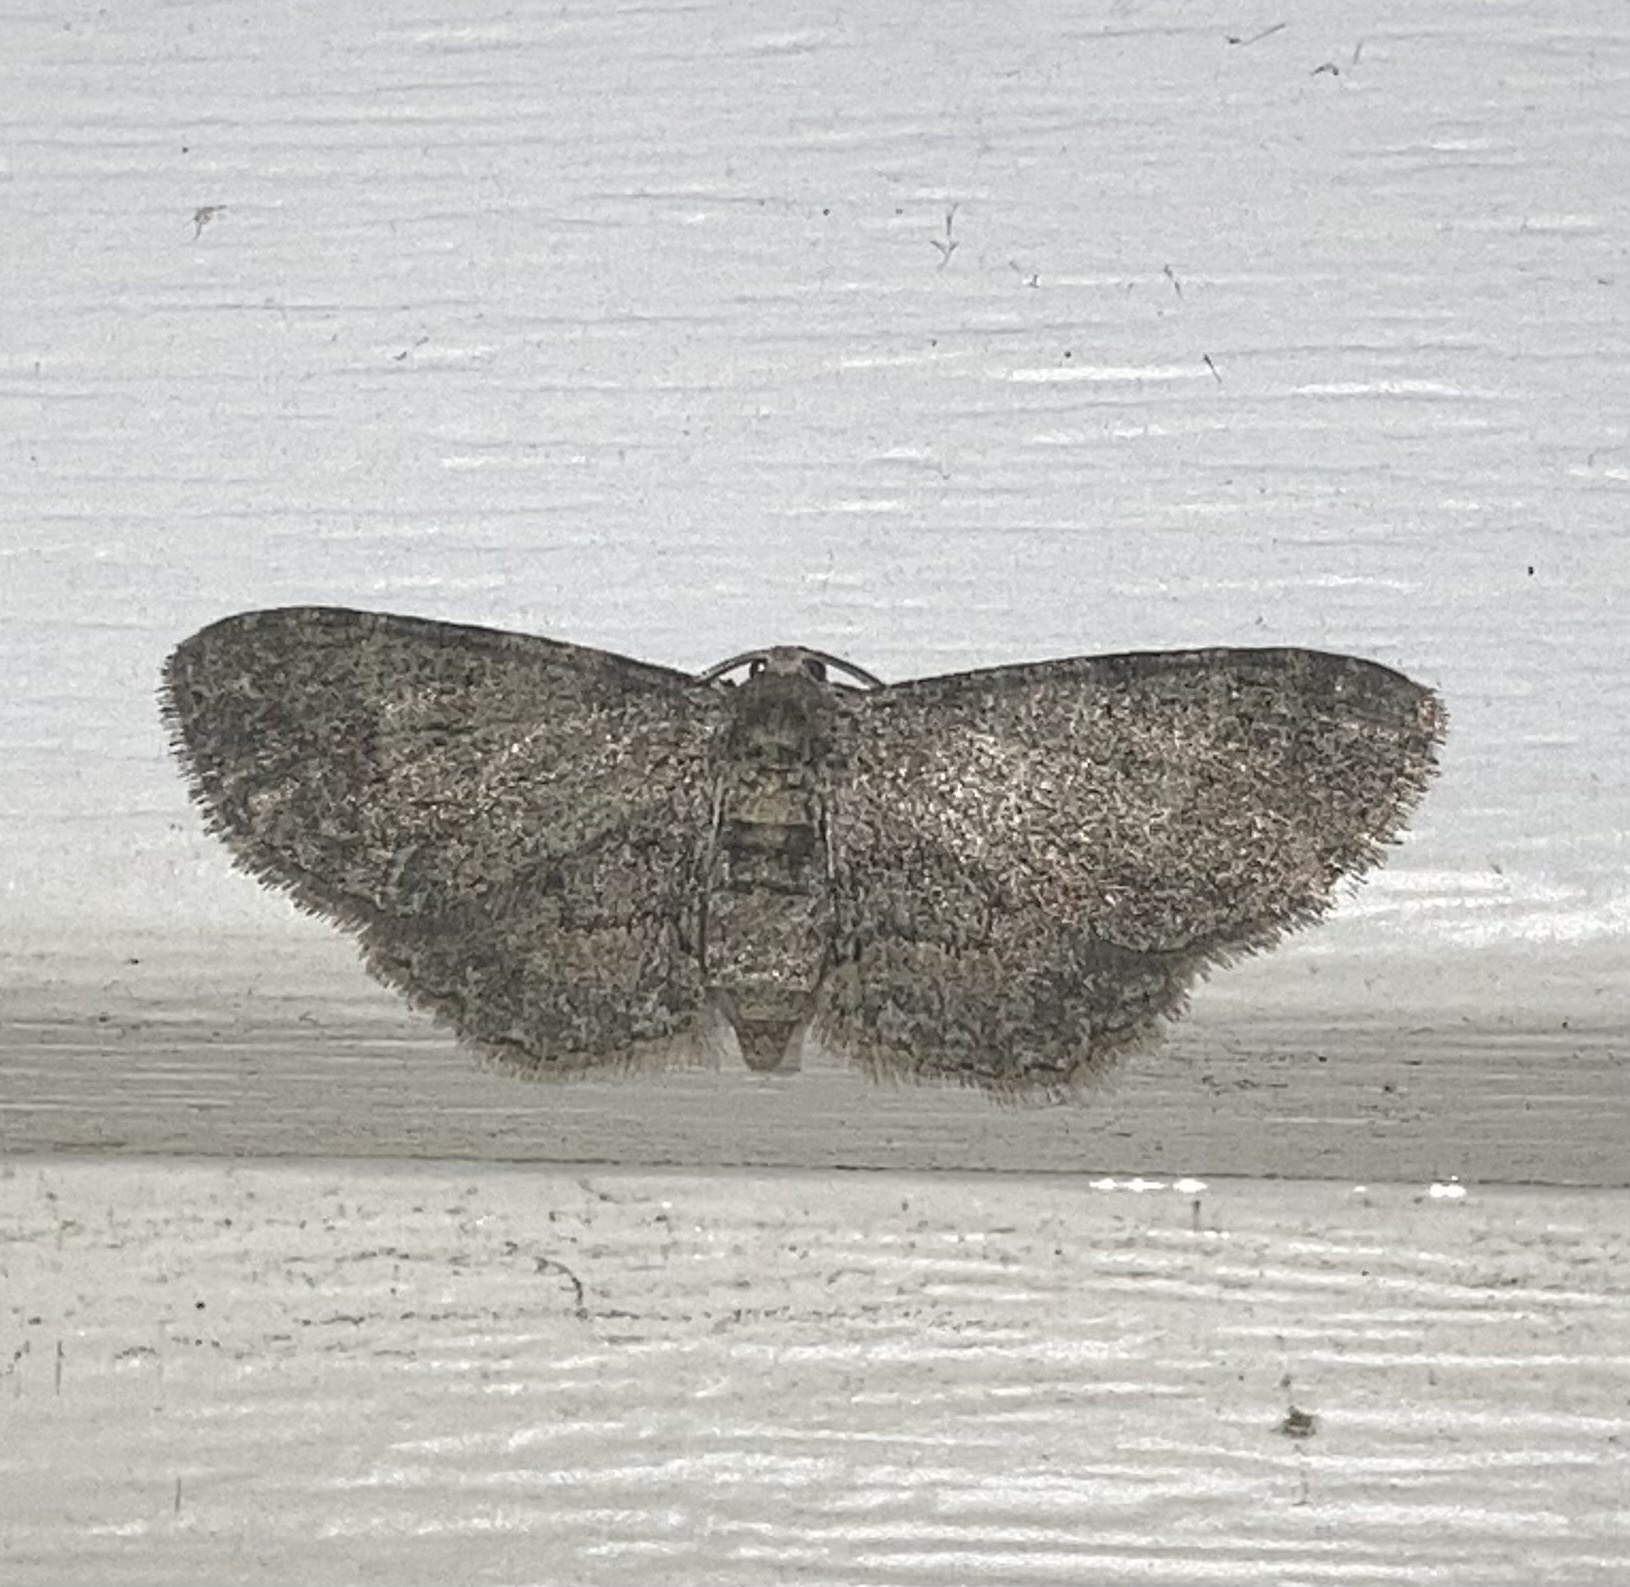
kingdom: Animalia
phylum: Arthropoda
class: Insecta
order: Lepidoptera
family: Geometridae
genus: Glenoides
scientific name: Glenoides texanaria
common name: Texas gray
